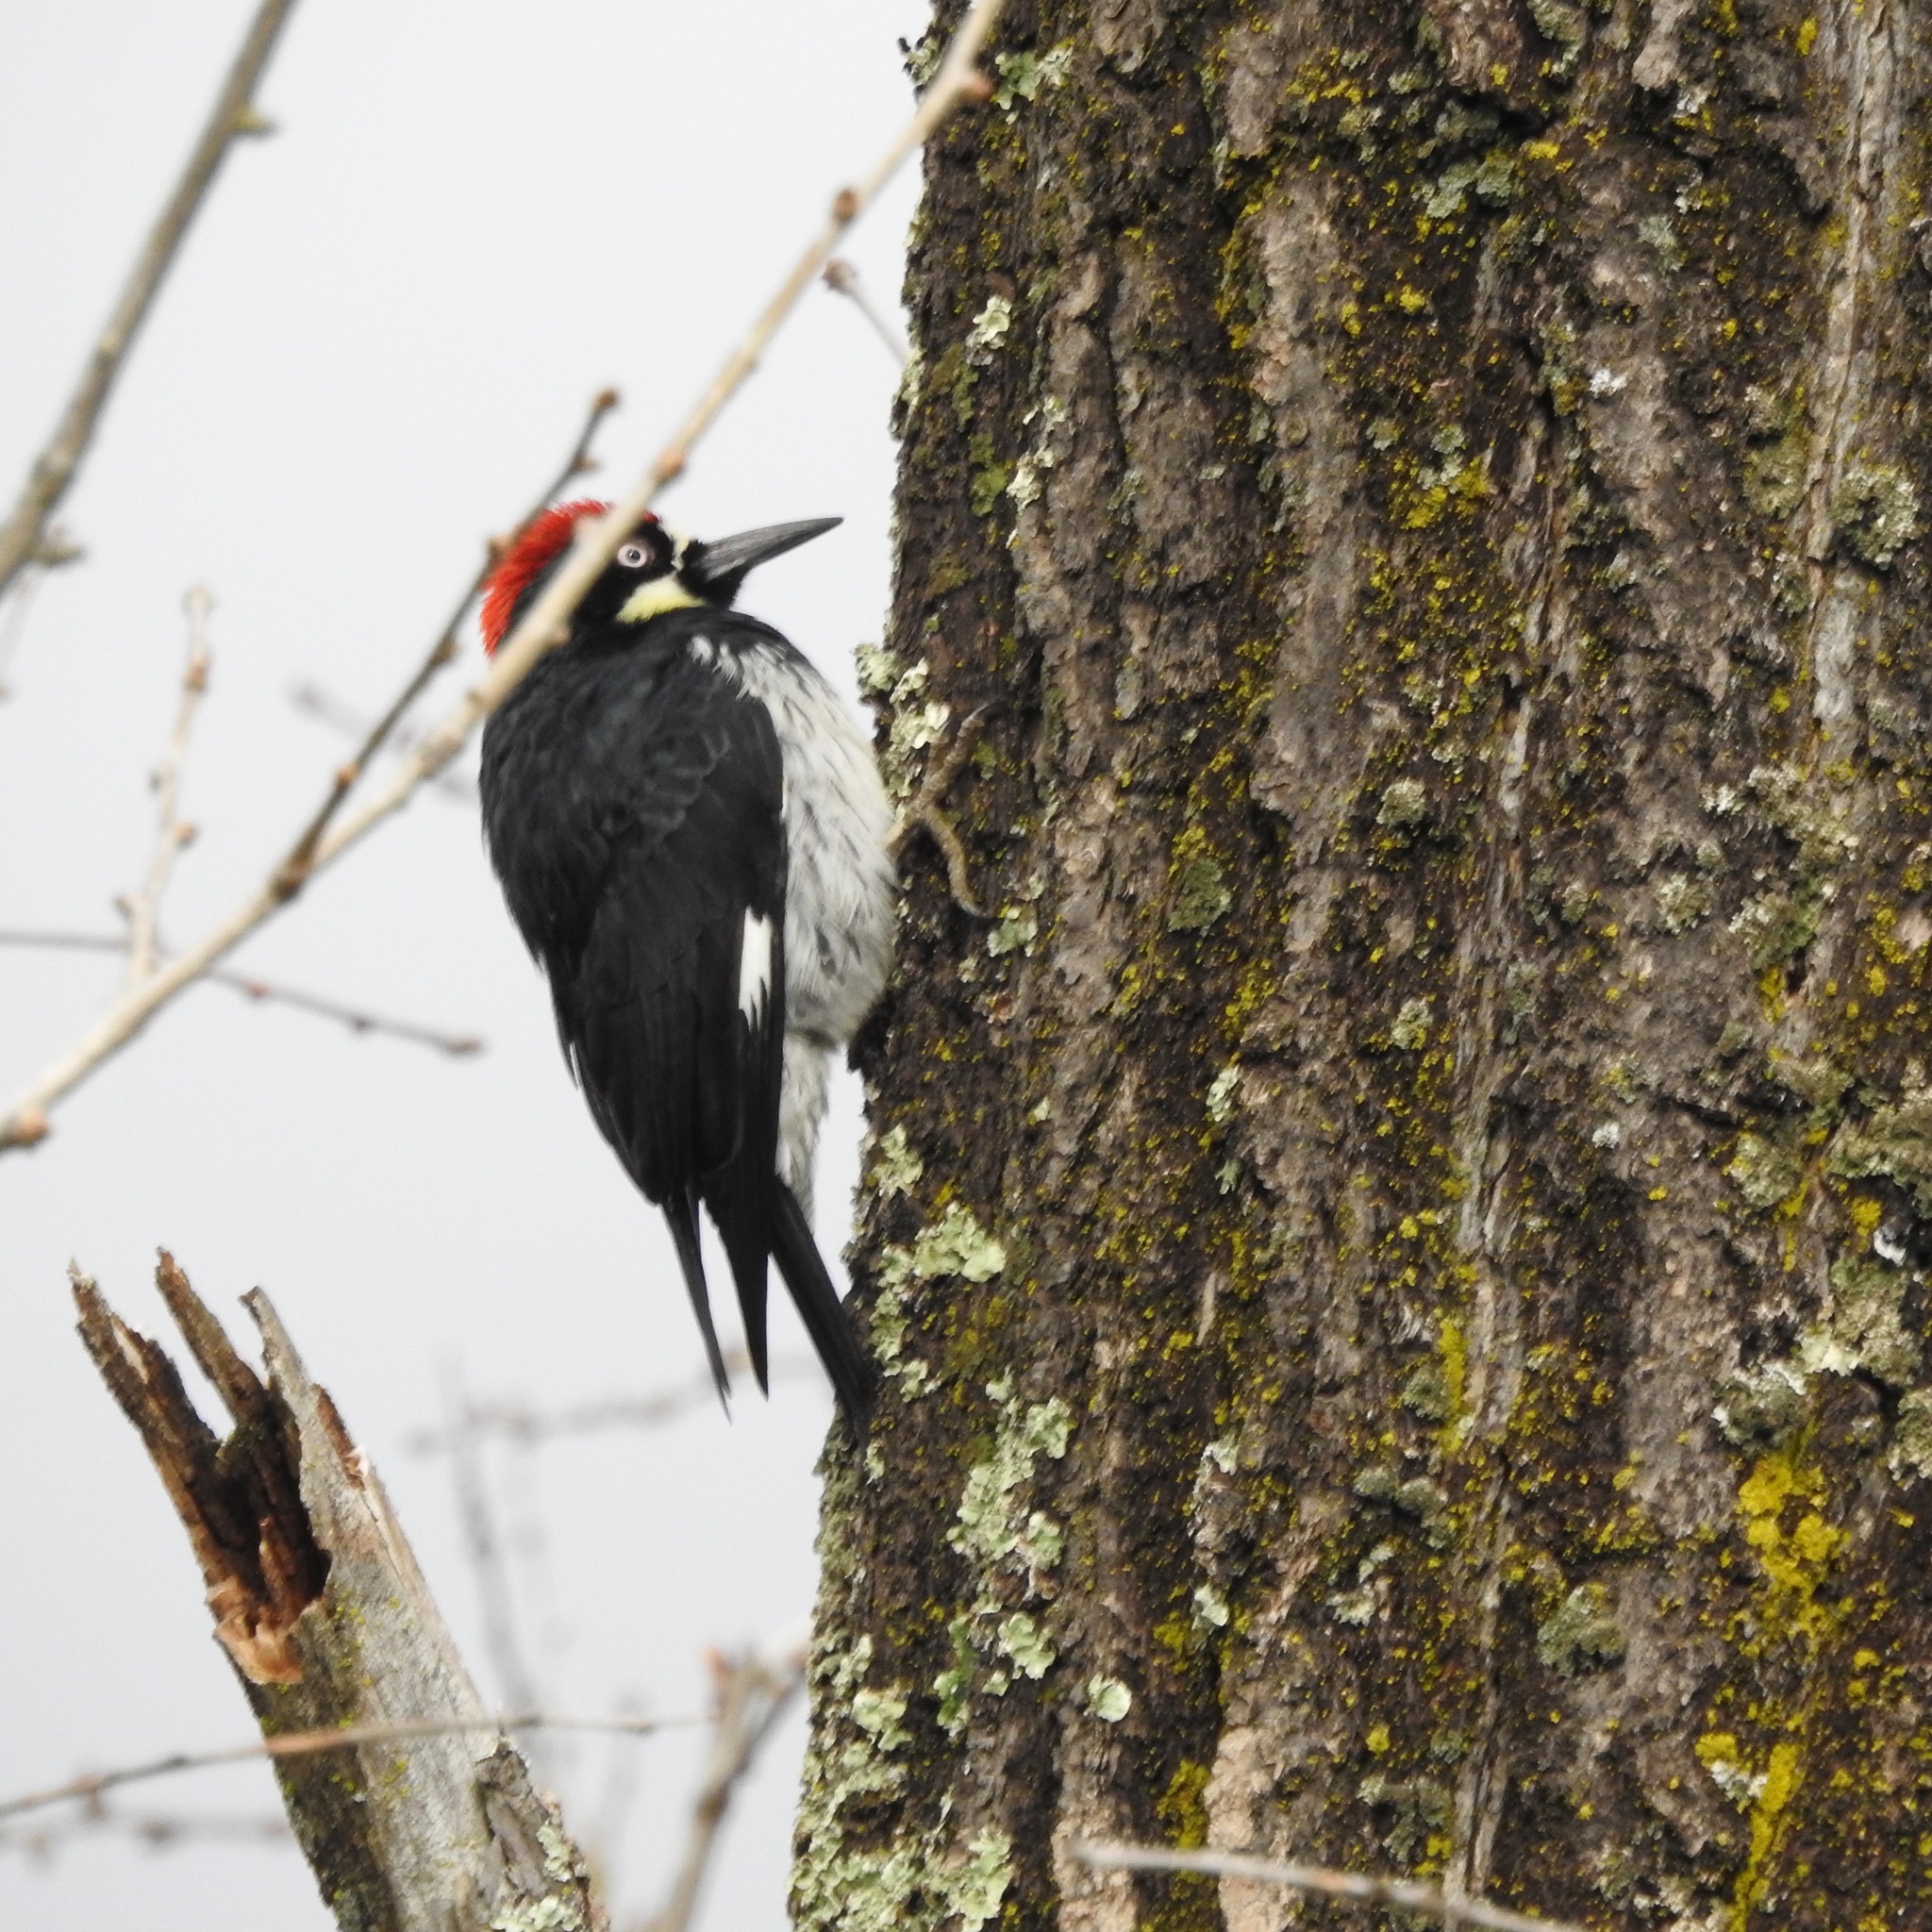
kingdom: Animalia
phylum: Chordata
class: Aves
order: Piciformes
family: Picidae
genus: Melanerpes
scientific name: Melanerpes formicivorus
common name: Acorn woodpecker
